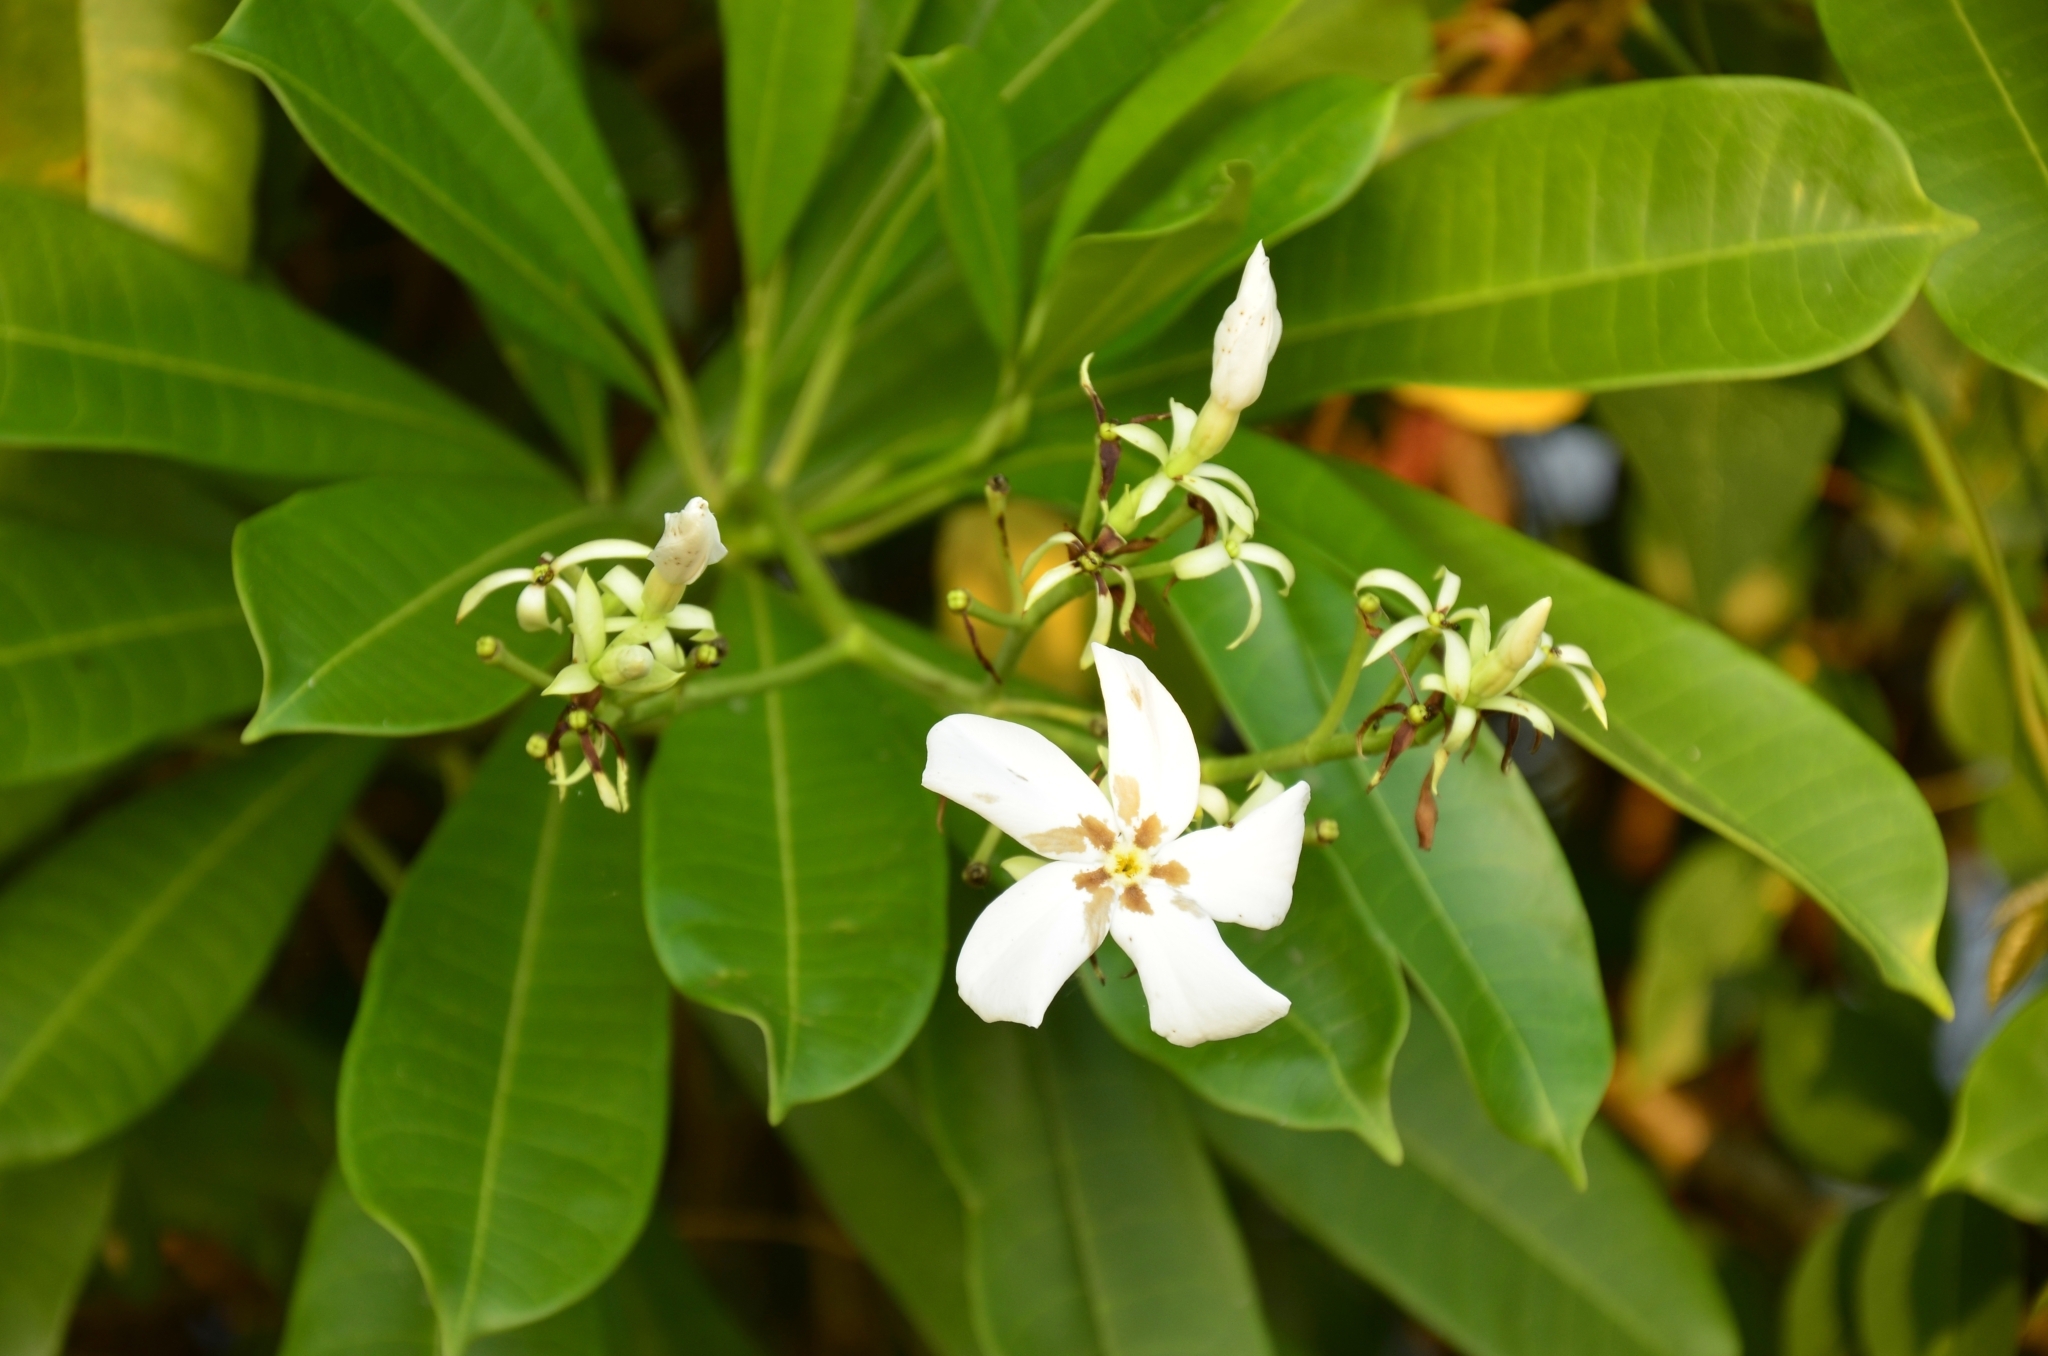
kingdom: Plantae
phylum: Tracheophyta
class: Magnoliopsida
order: Gentianales
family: Apocynaceae
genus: Cerbera
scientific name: Cerbera odollam
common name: Pong-pong
